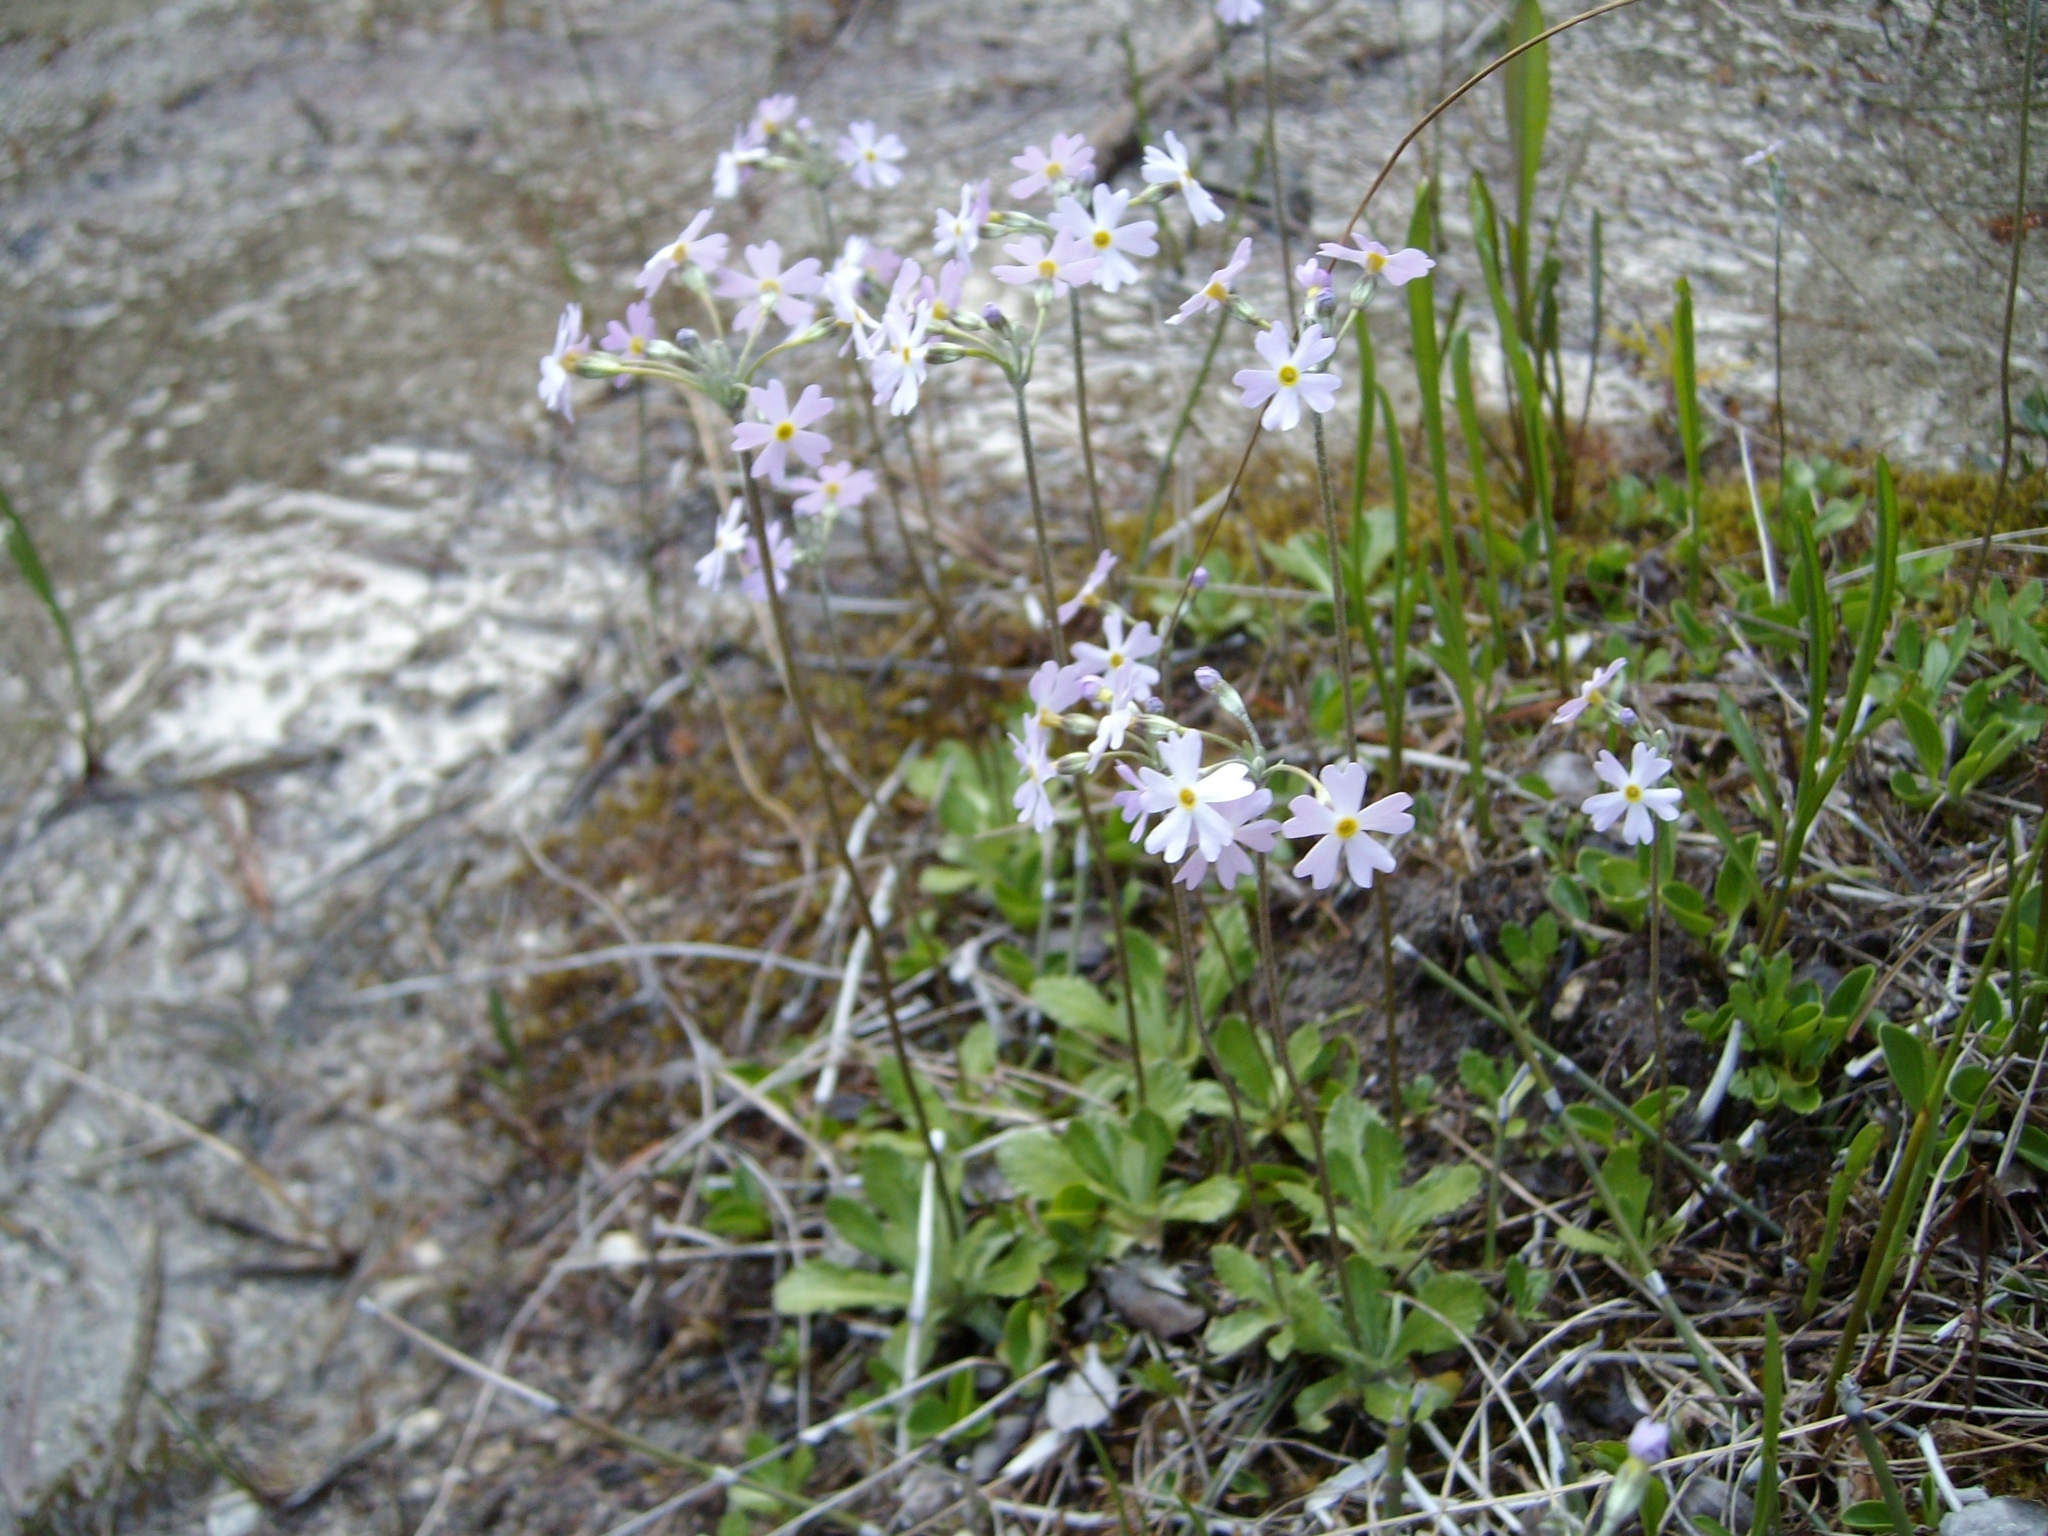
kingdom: Plantae
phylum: Tracheophyta
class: Magnoliopsida
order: Ericales
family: Primulaceae
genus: Primula
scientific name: Primula mistassinica
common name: Bird's-eye primrose
